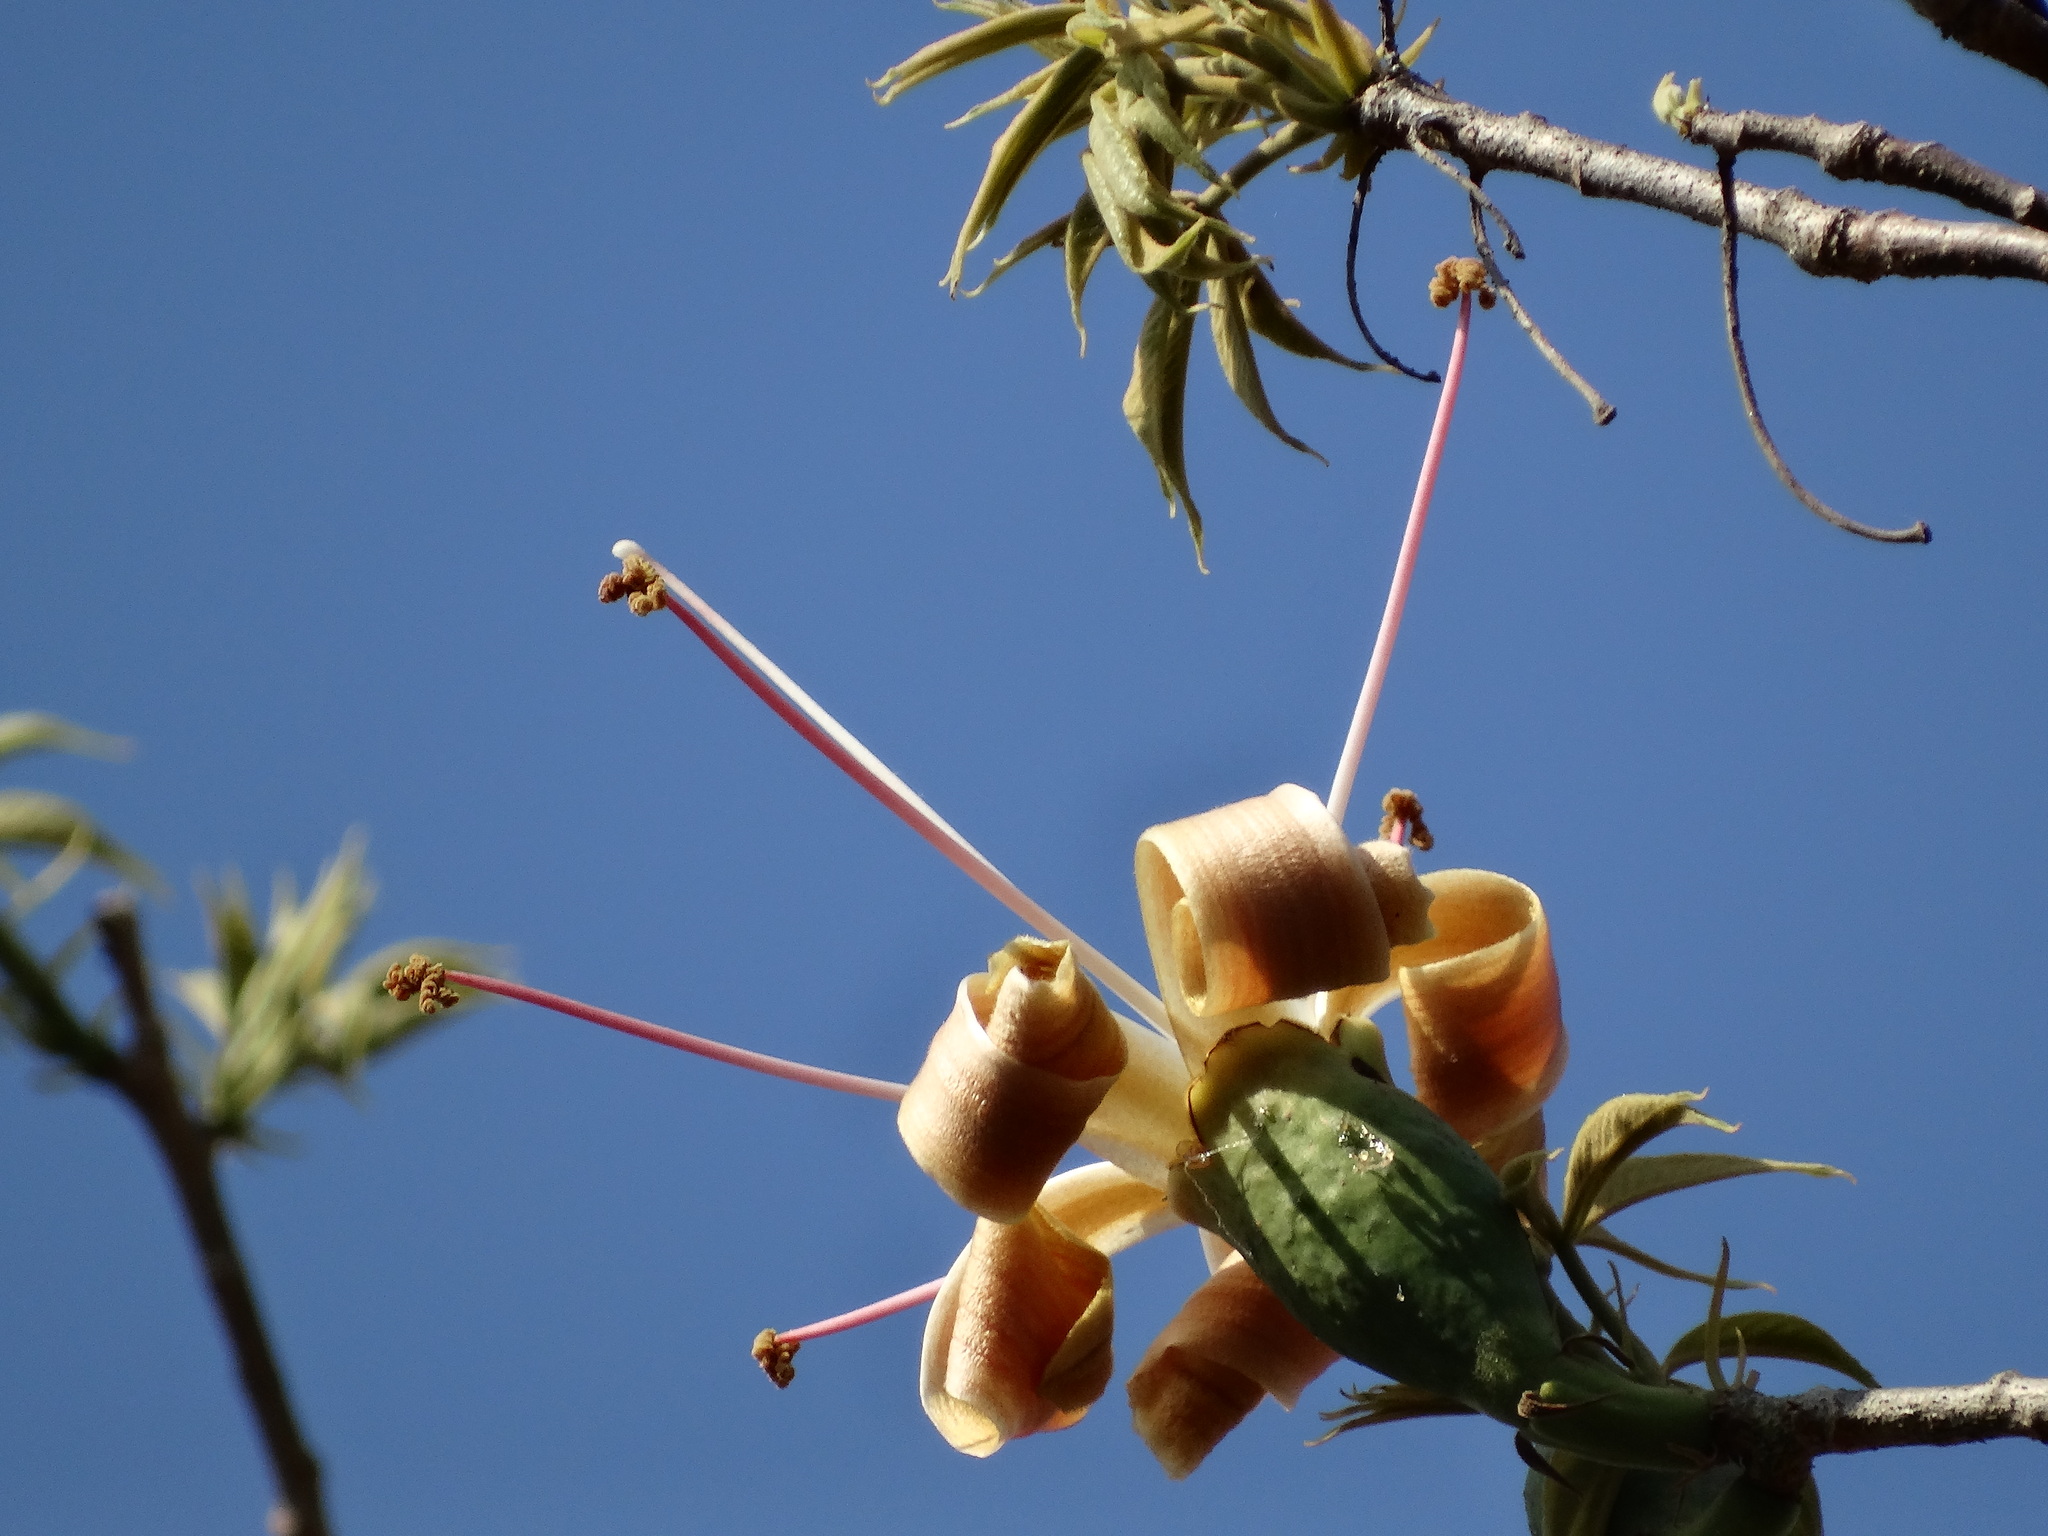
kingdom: Plantae
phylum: Tracheophyta
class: Magnoliopsida
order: Malvales
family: Malvaceae
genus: Ceiba
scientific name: Ceiba aesculifolia
